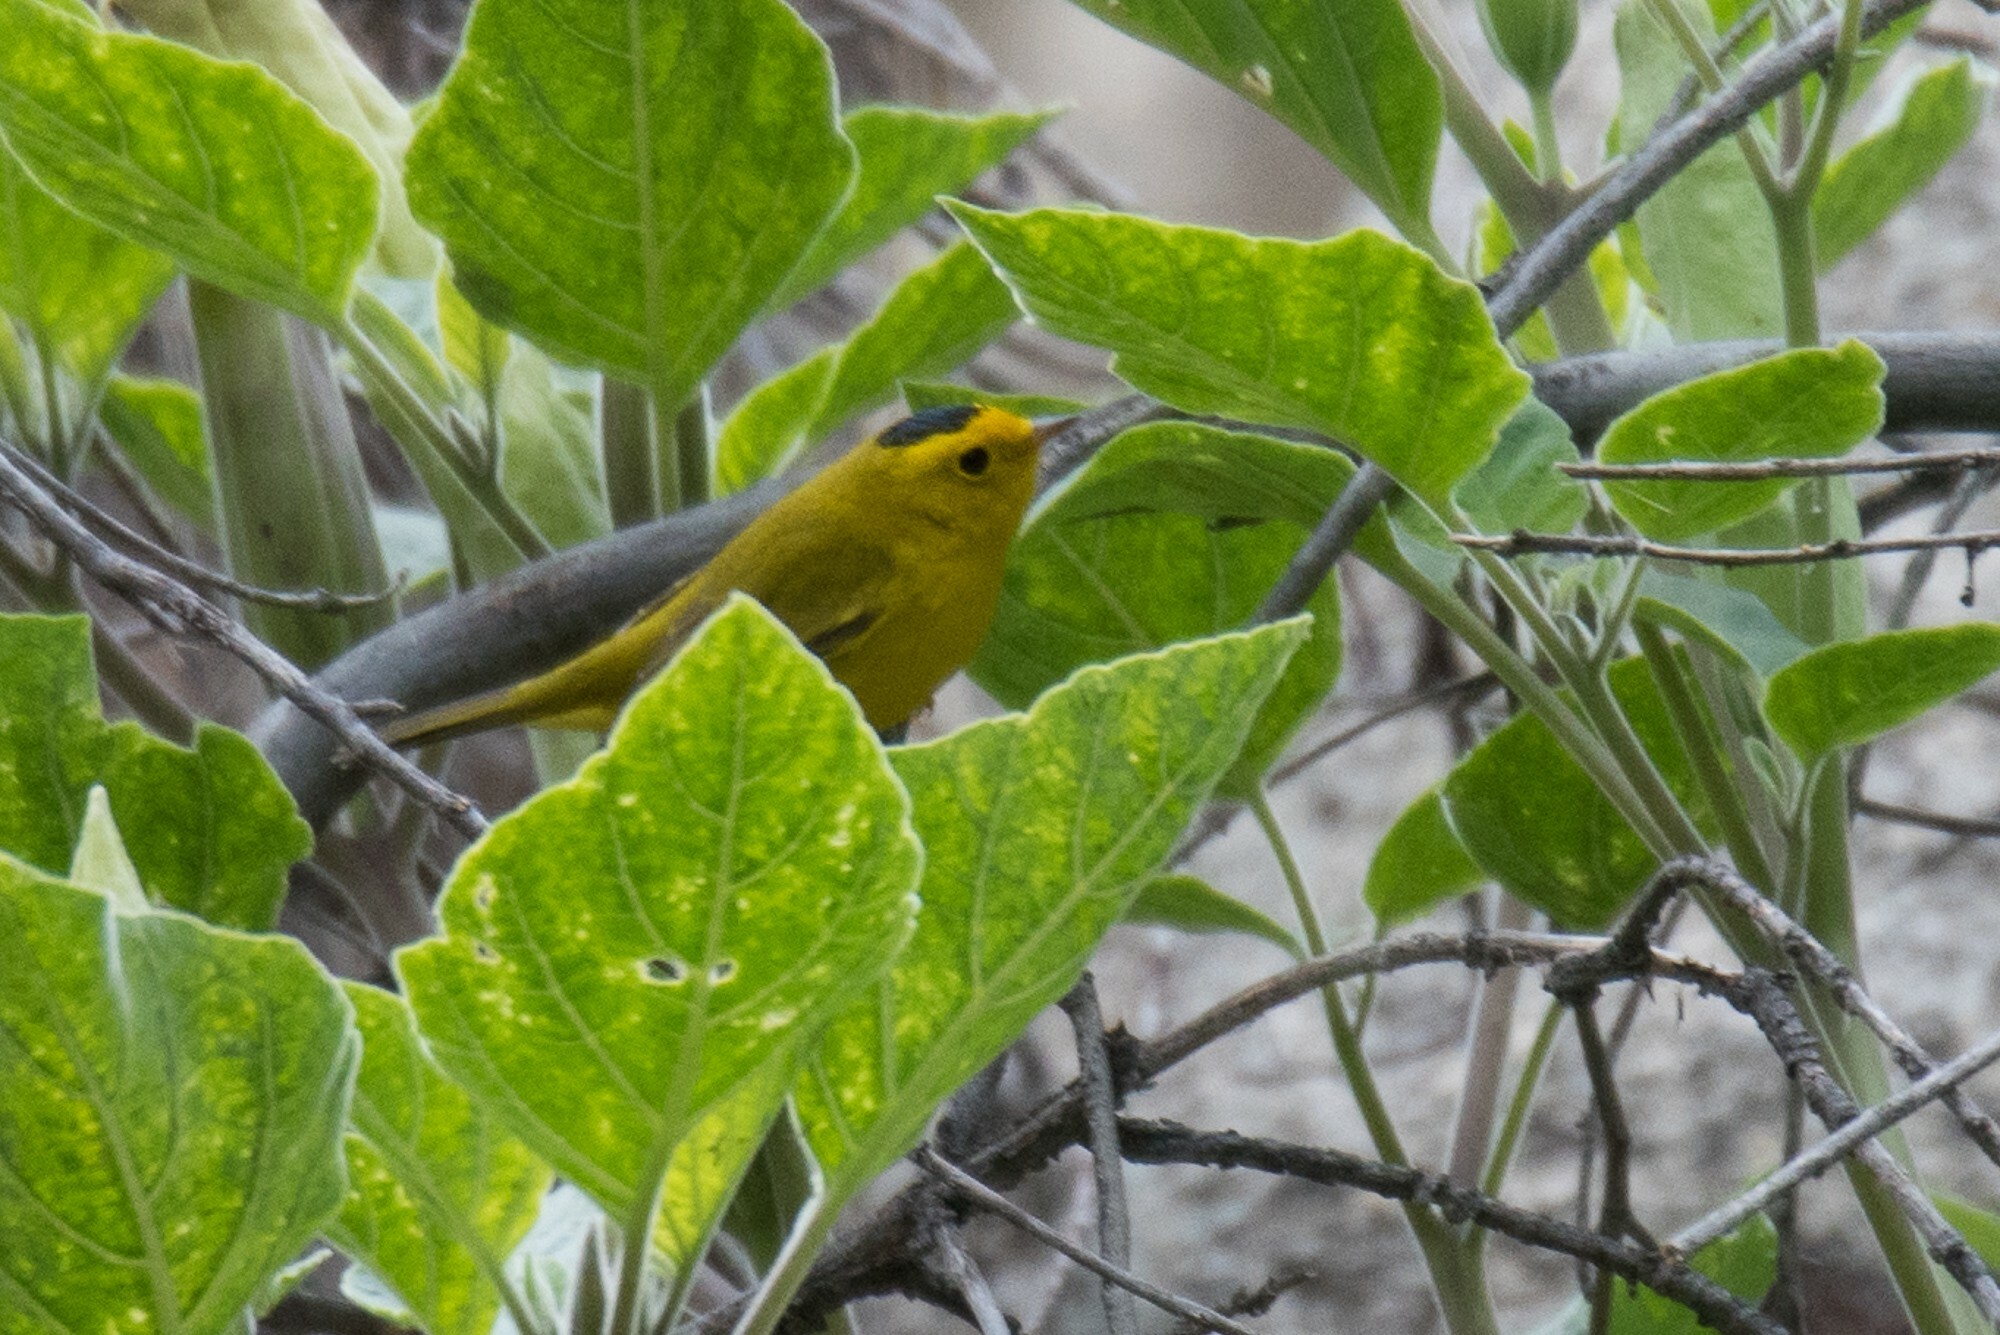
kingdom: Animalia
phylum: Chordata
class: Aves
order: Passeriformes
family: Parulidae
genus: Cardellina
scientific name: Cardellina pusilla
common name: Wilson's warbler
